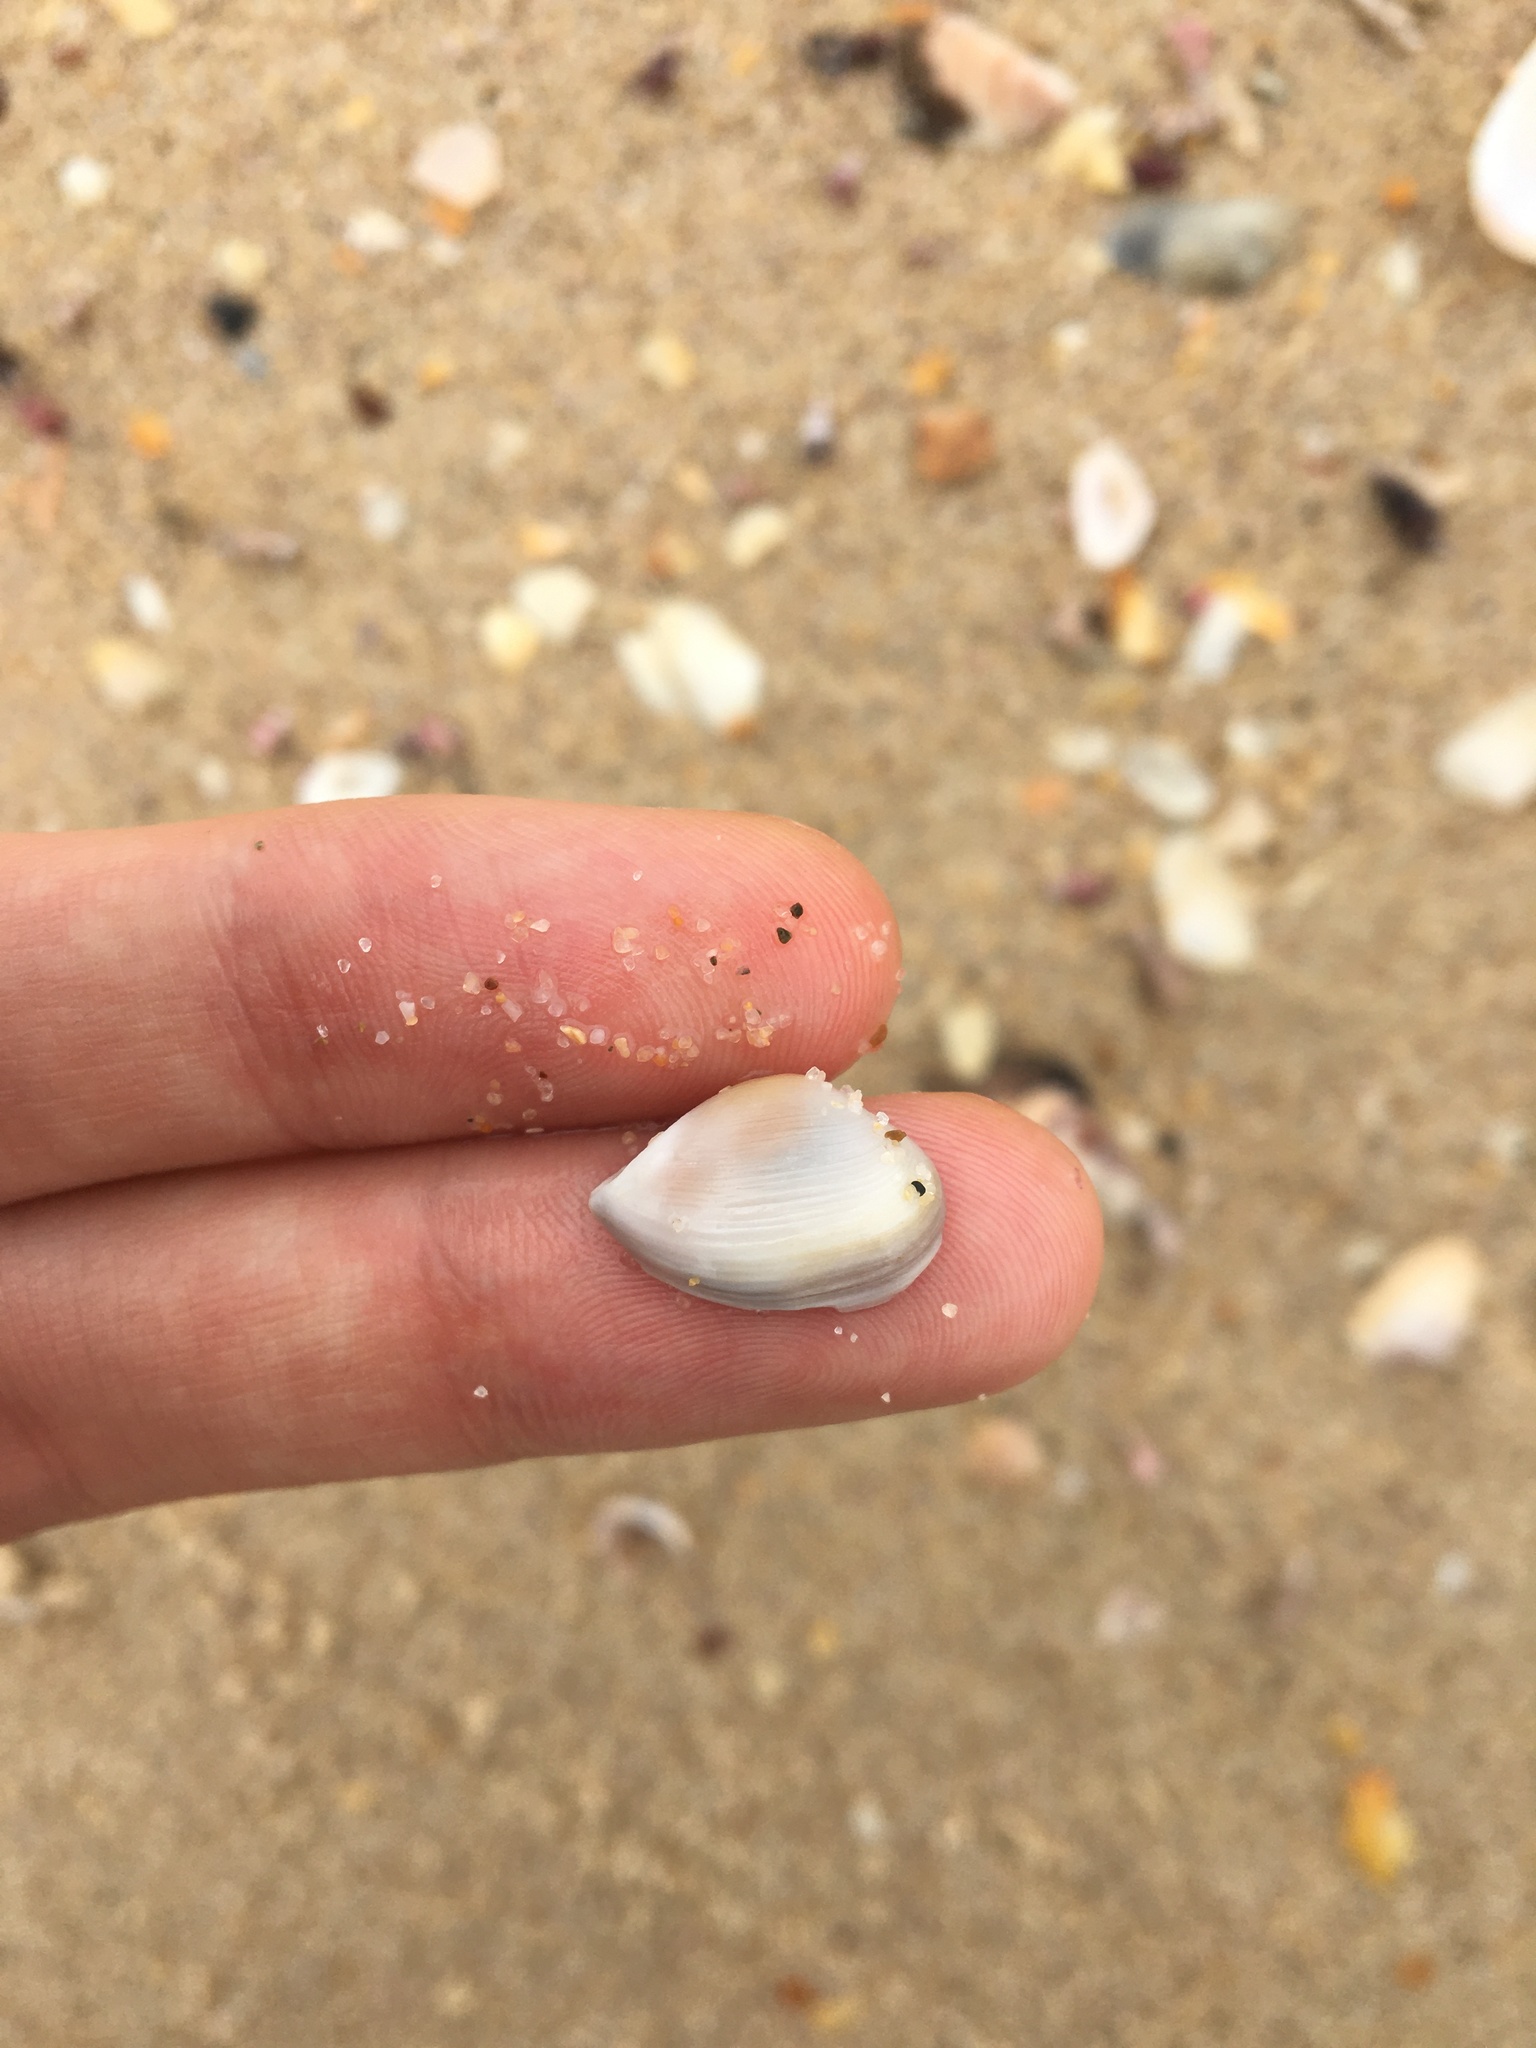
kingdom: Animalia
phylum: Mollusca
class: Bivalvia
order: Myida
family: Corbulidae
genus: Corbula
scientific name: Corbula smithiana
